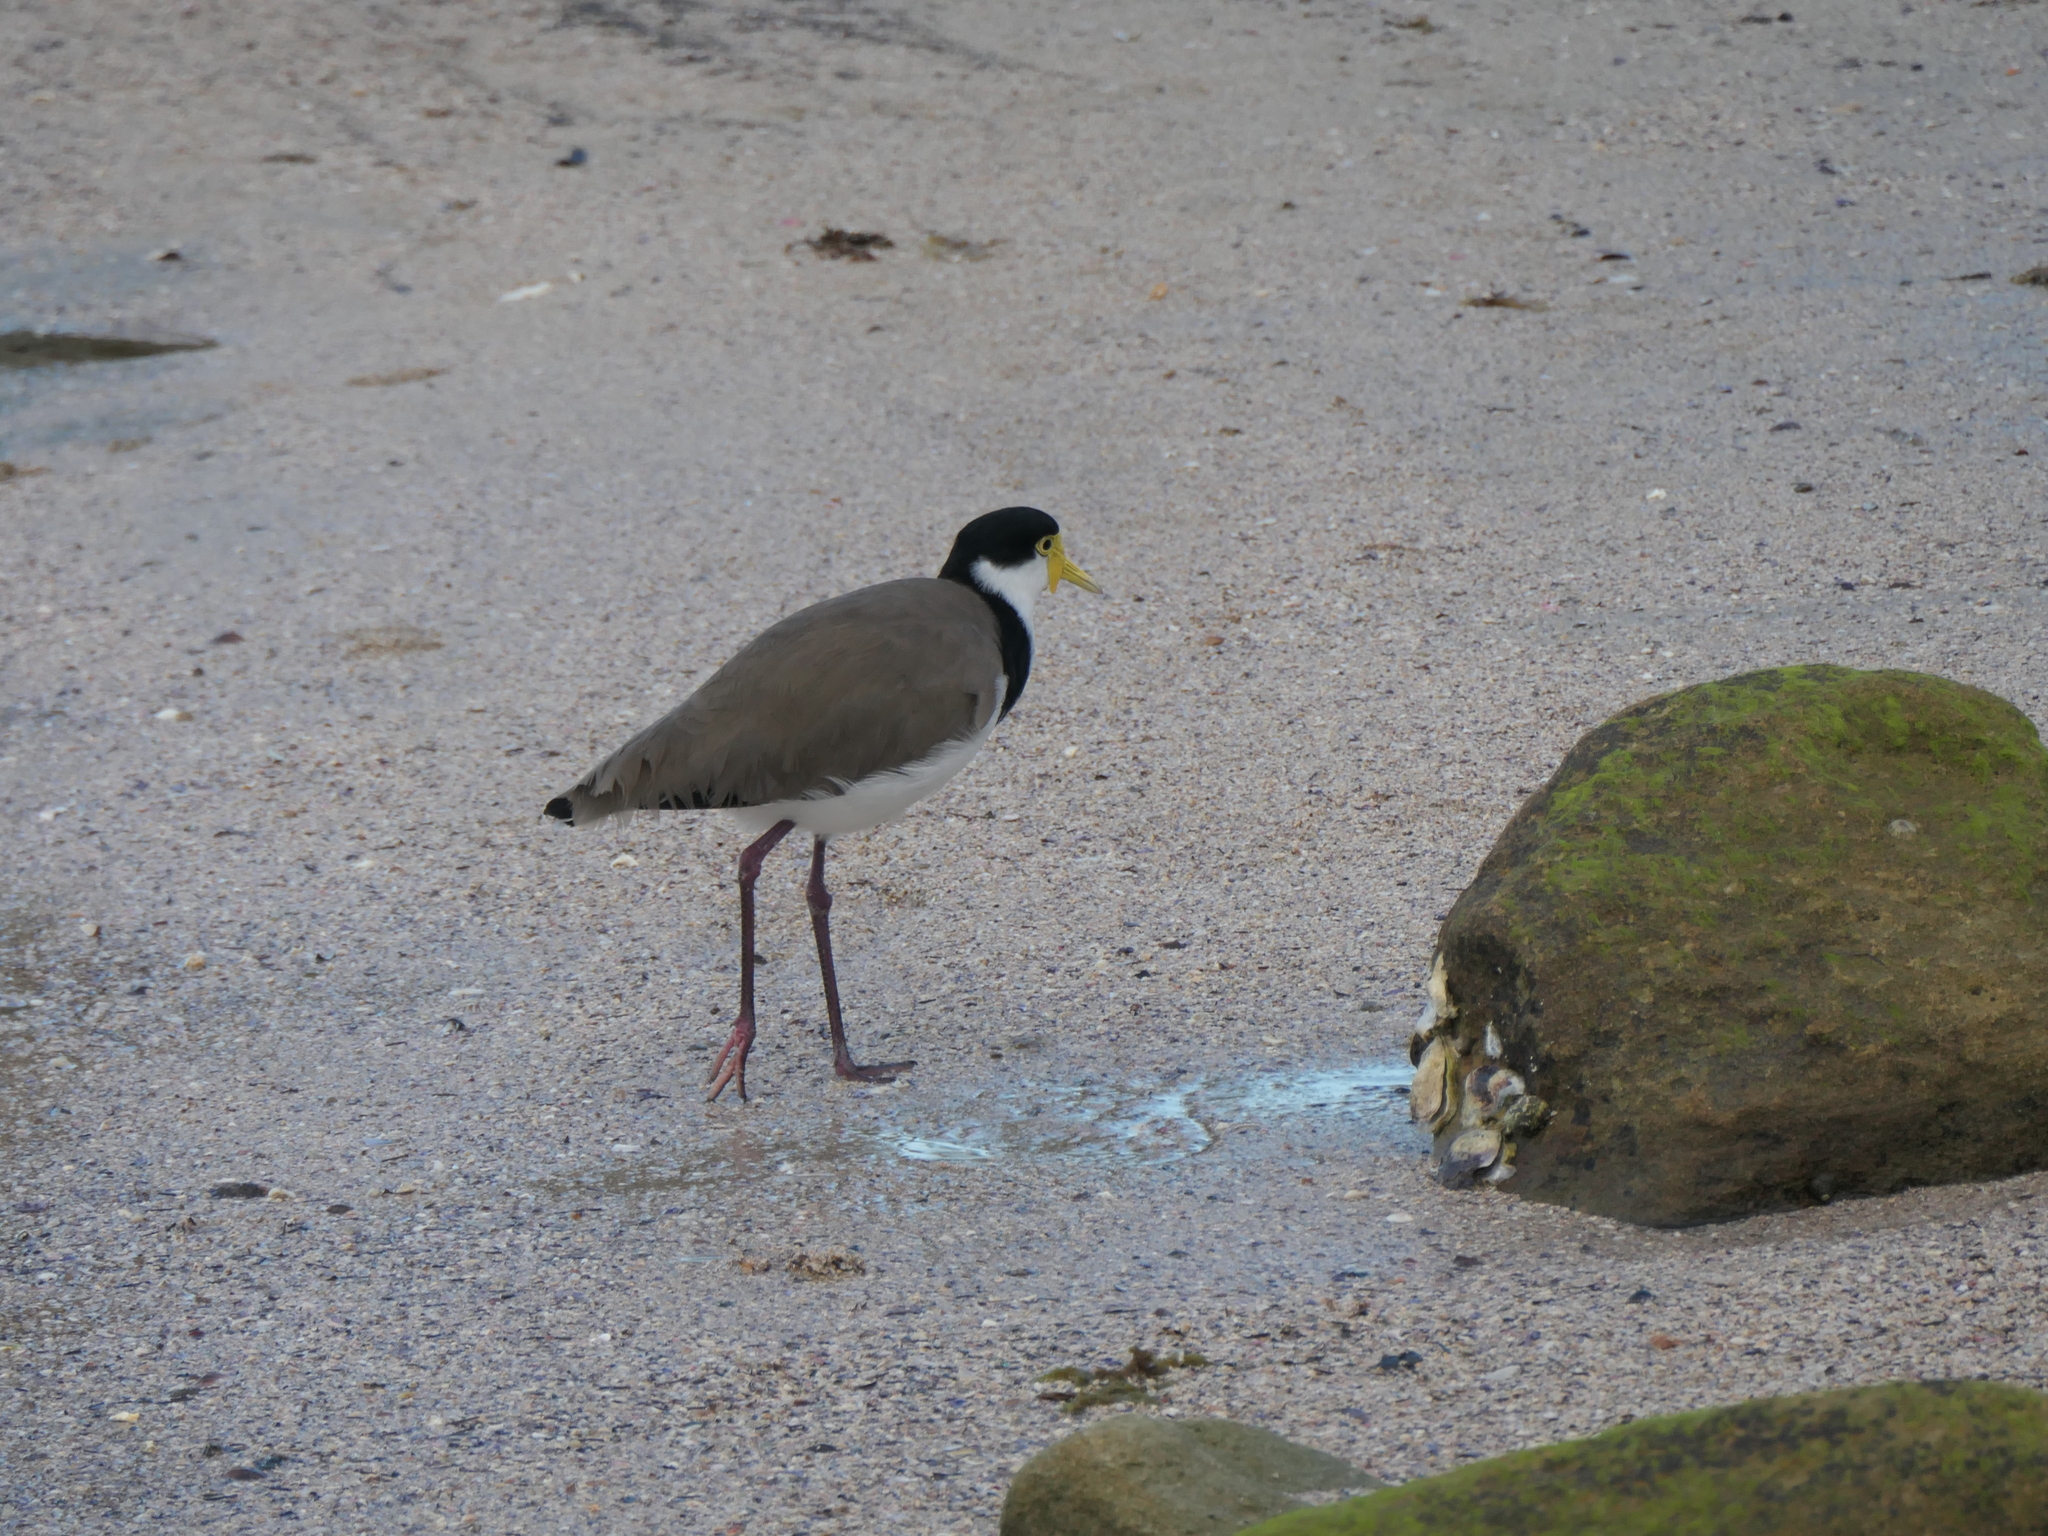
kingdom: Animalia
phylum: Chordata
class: Aves
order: Charadriiformes
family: Charadriidae
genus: Vanellus
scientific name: Vanellus miles
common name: Masked lapwing
